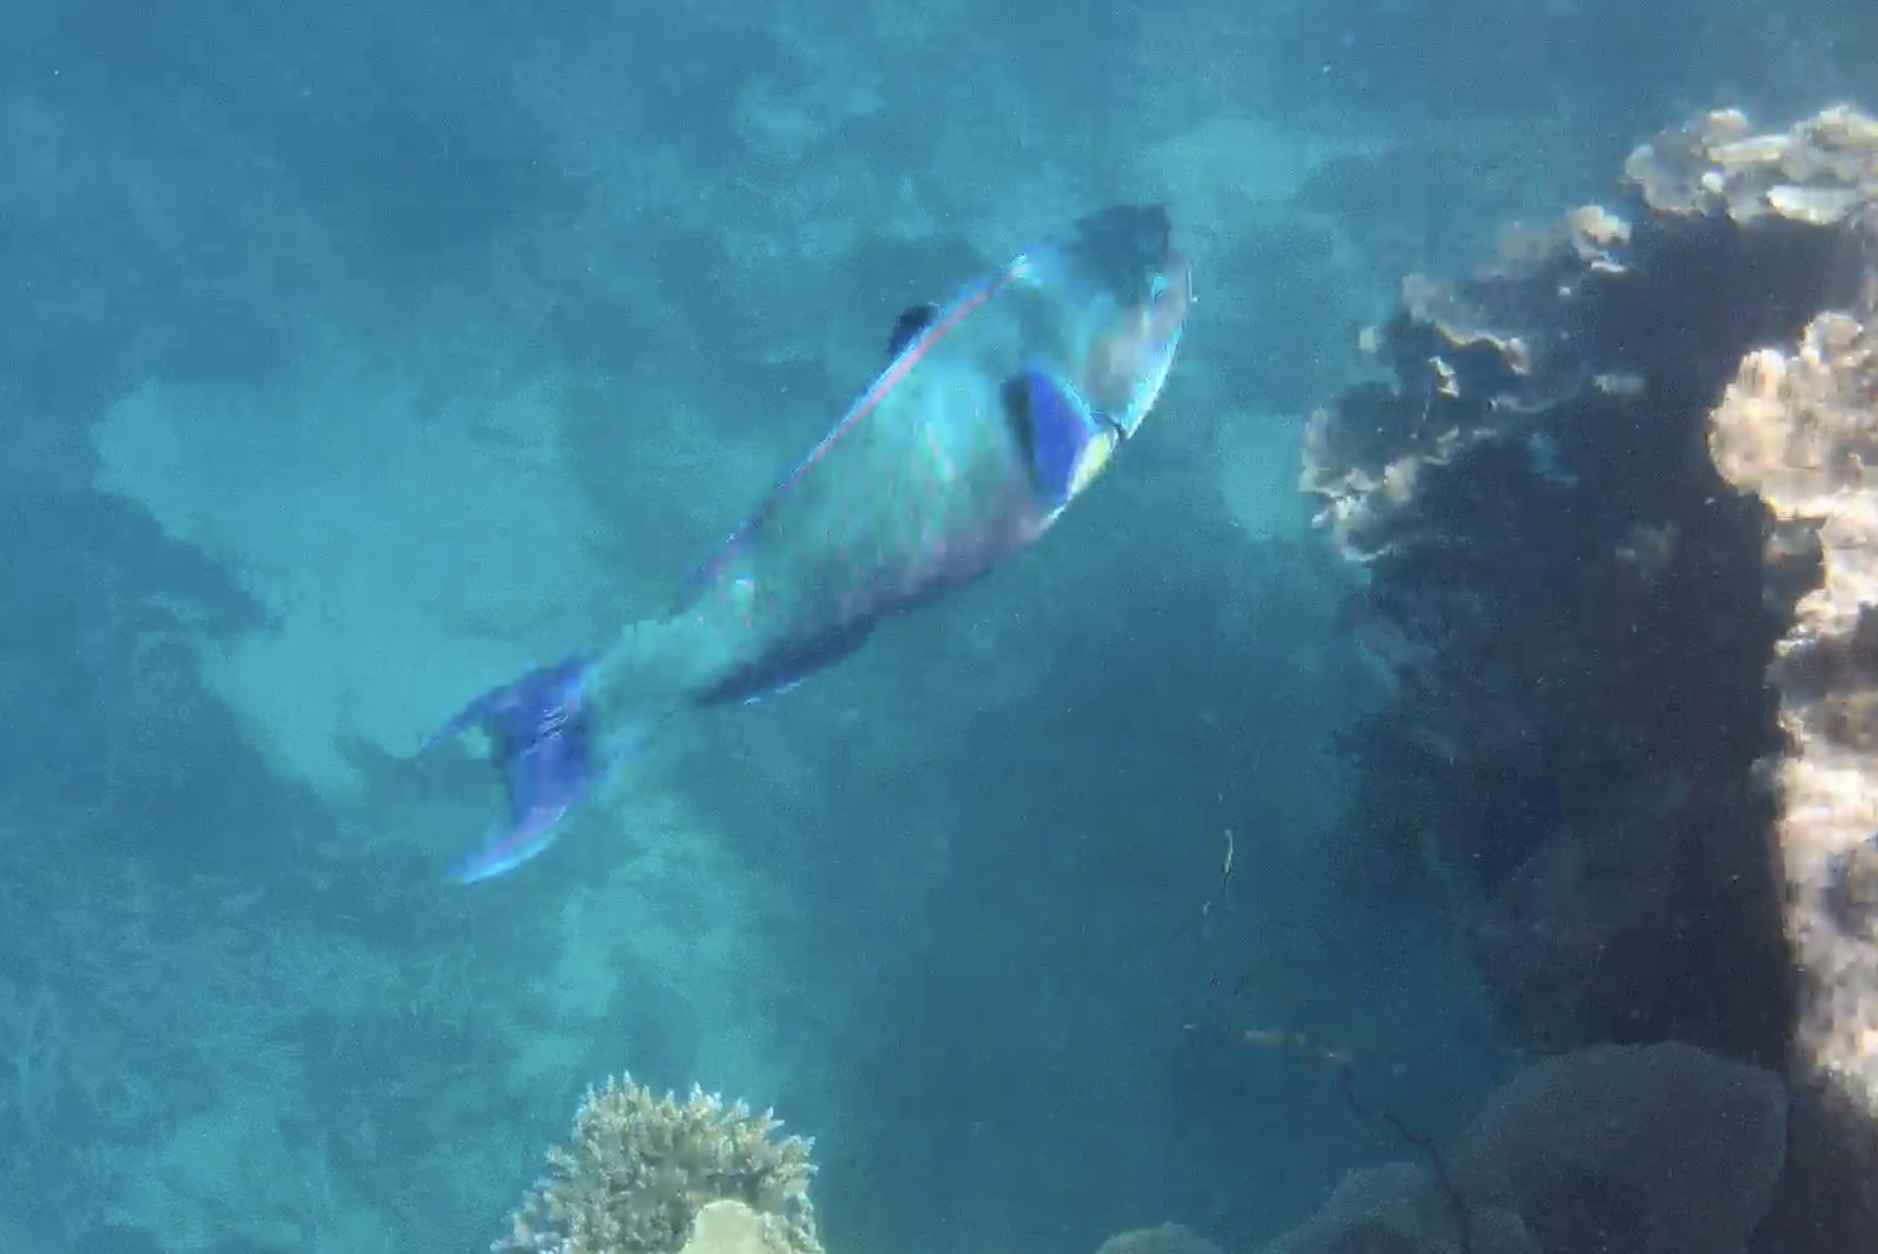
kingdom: Animalia
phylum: Chordata
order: Perciformes
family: Scaridae
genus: Chlorurus
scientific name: Chlorurus microrhinos
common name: Steephead parrotfish
